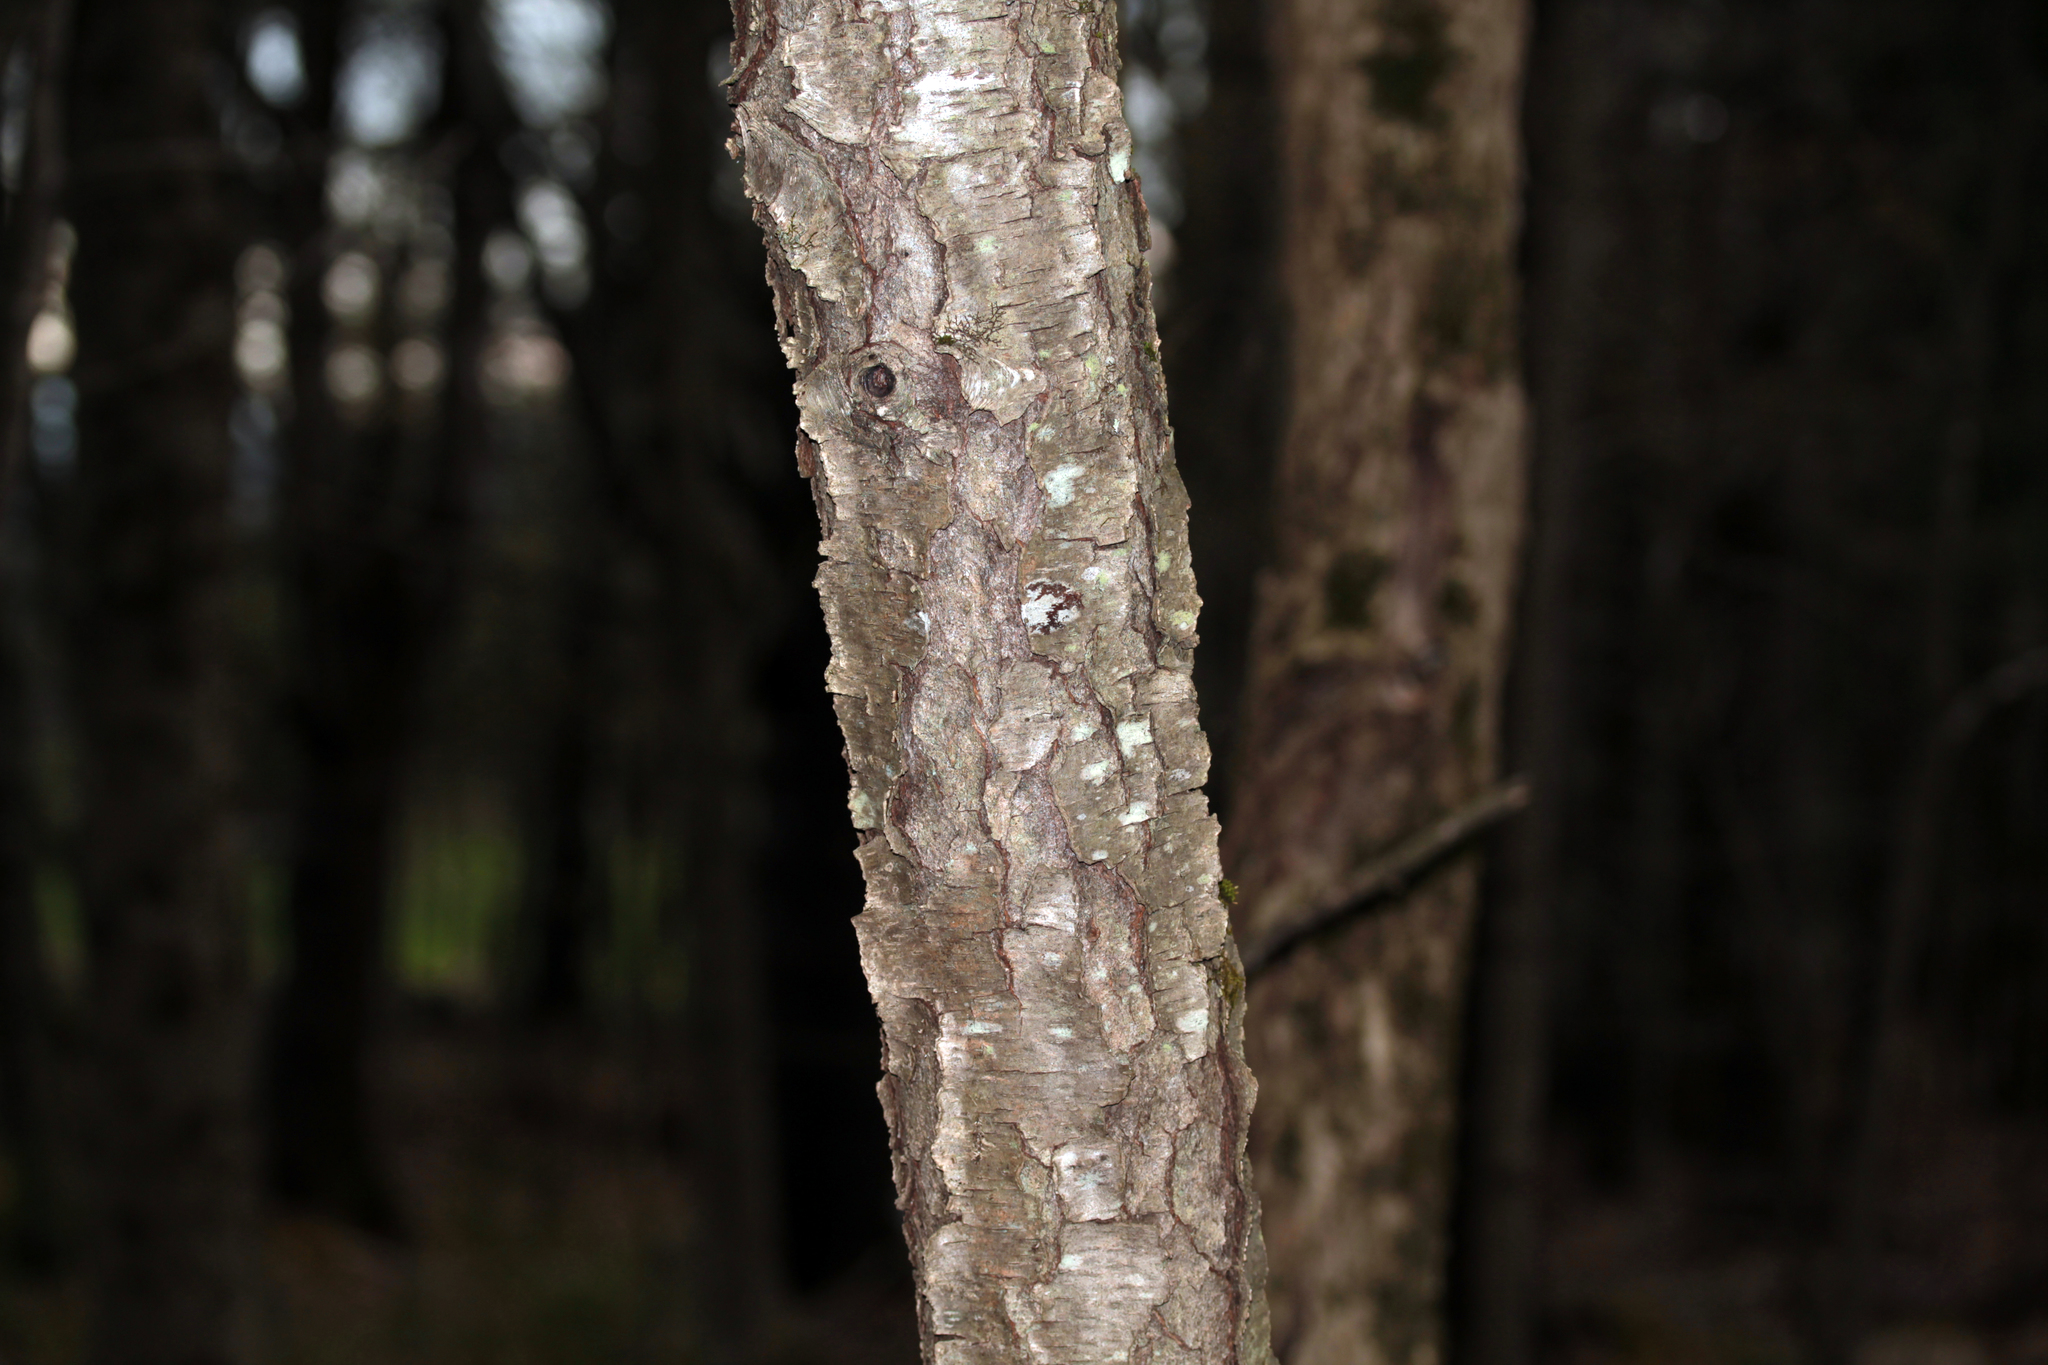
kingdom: Plantae
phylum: Tracheophyta
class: Magnoliopsida
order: Rosales
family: Rosaceae
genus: Prunus
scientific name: Prunus serotina
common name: Black cherry
